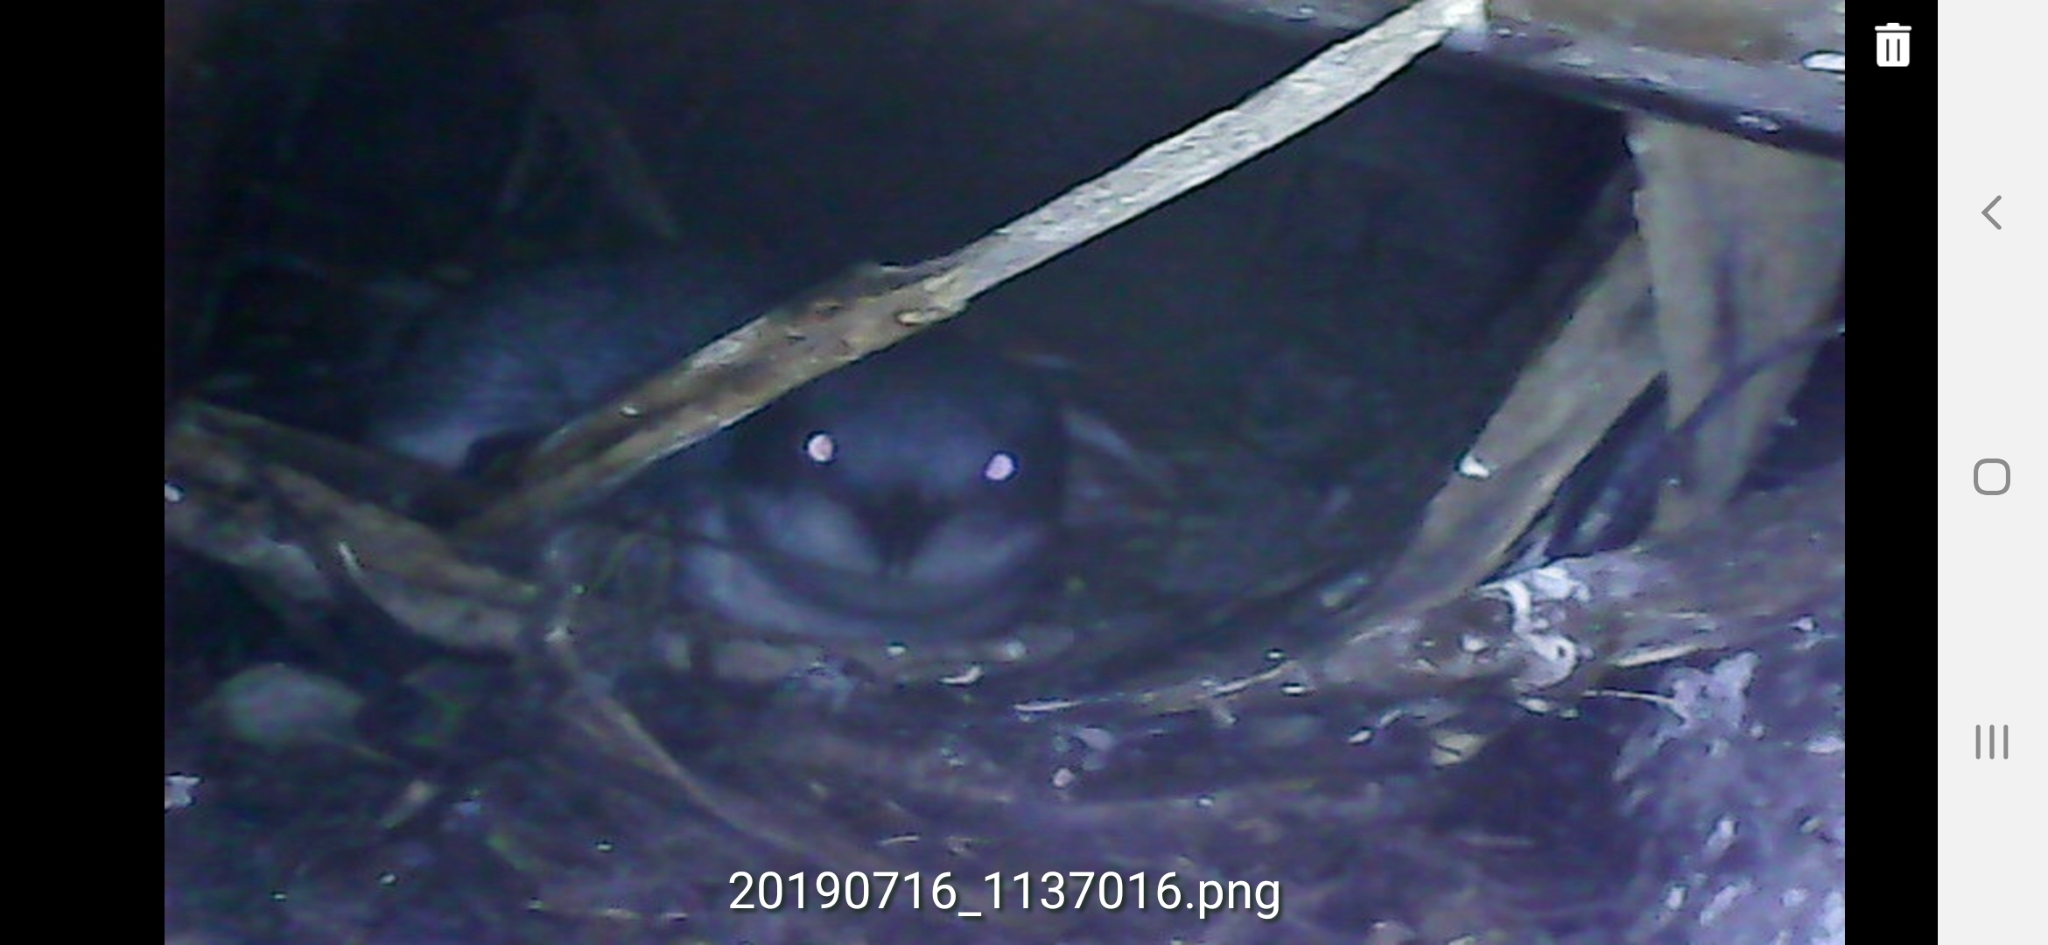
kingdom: Animalia
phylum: Chordata
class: Aves
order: Sphenisciformes
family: Spheniscidae
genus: Eudyptula
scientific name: Eudyptula minor
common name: Little penguin
